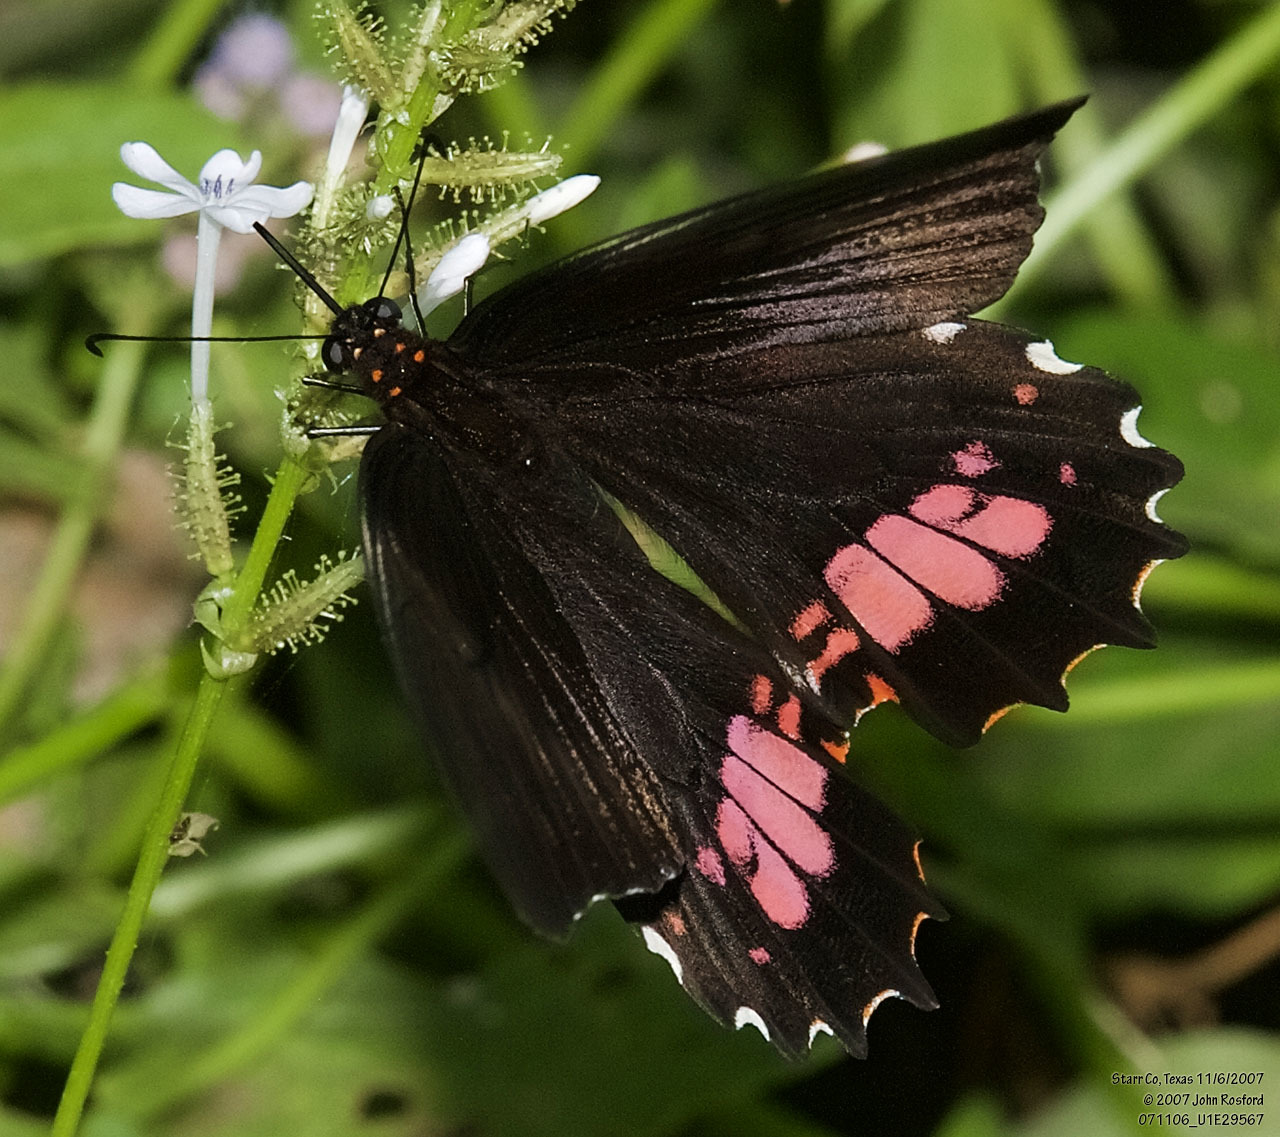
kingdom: Animalia
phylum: Arthropoda
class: Insecta
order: Lepidoptera
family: Papilionidae
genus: Papilio
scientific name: Papilio anchisiades
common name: Idaes swallowtail
